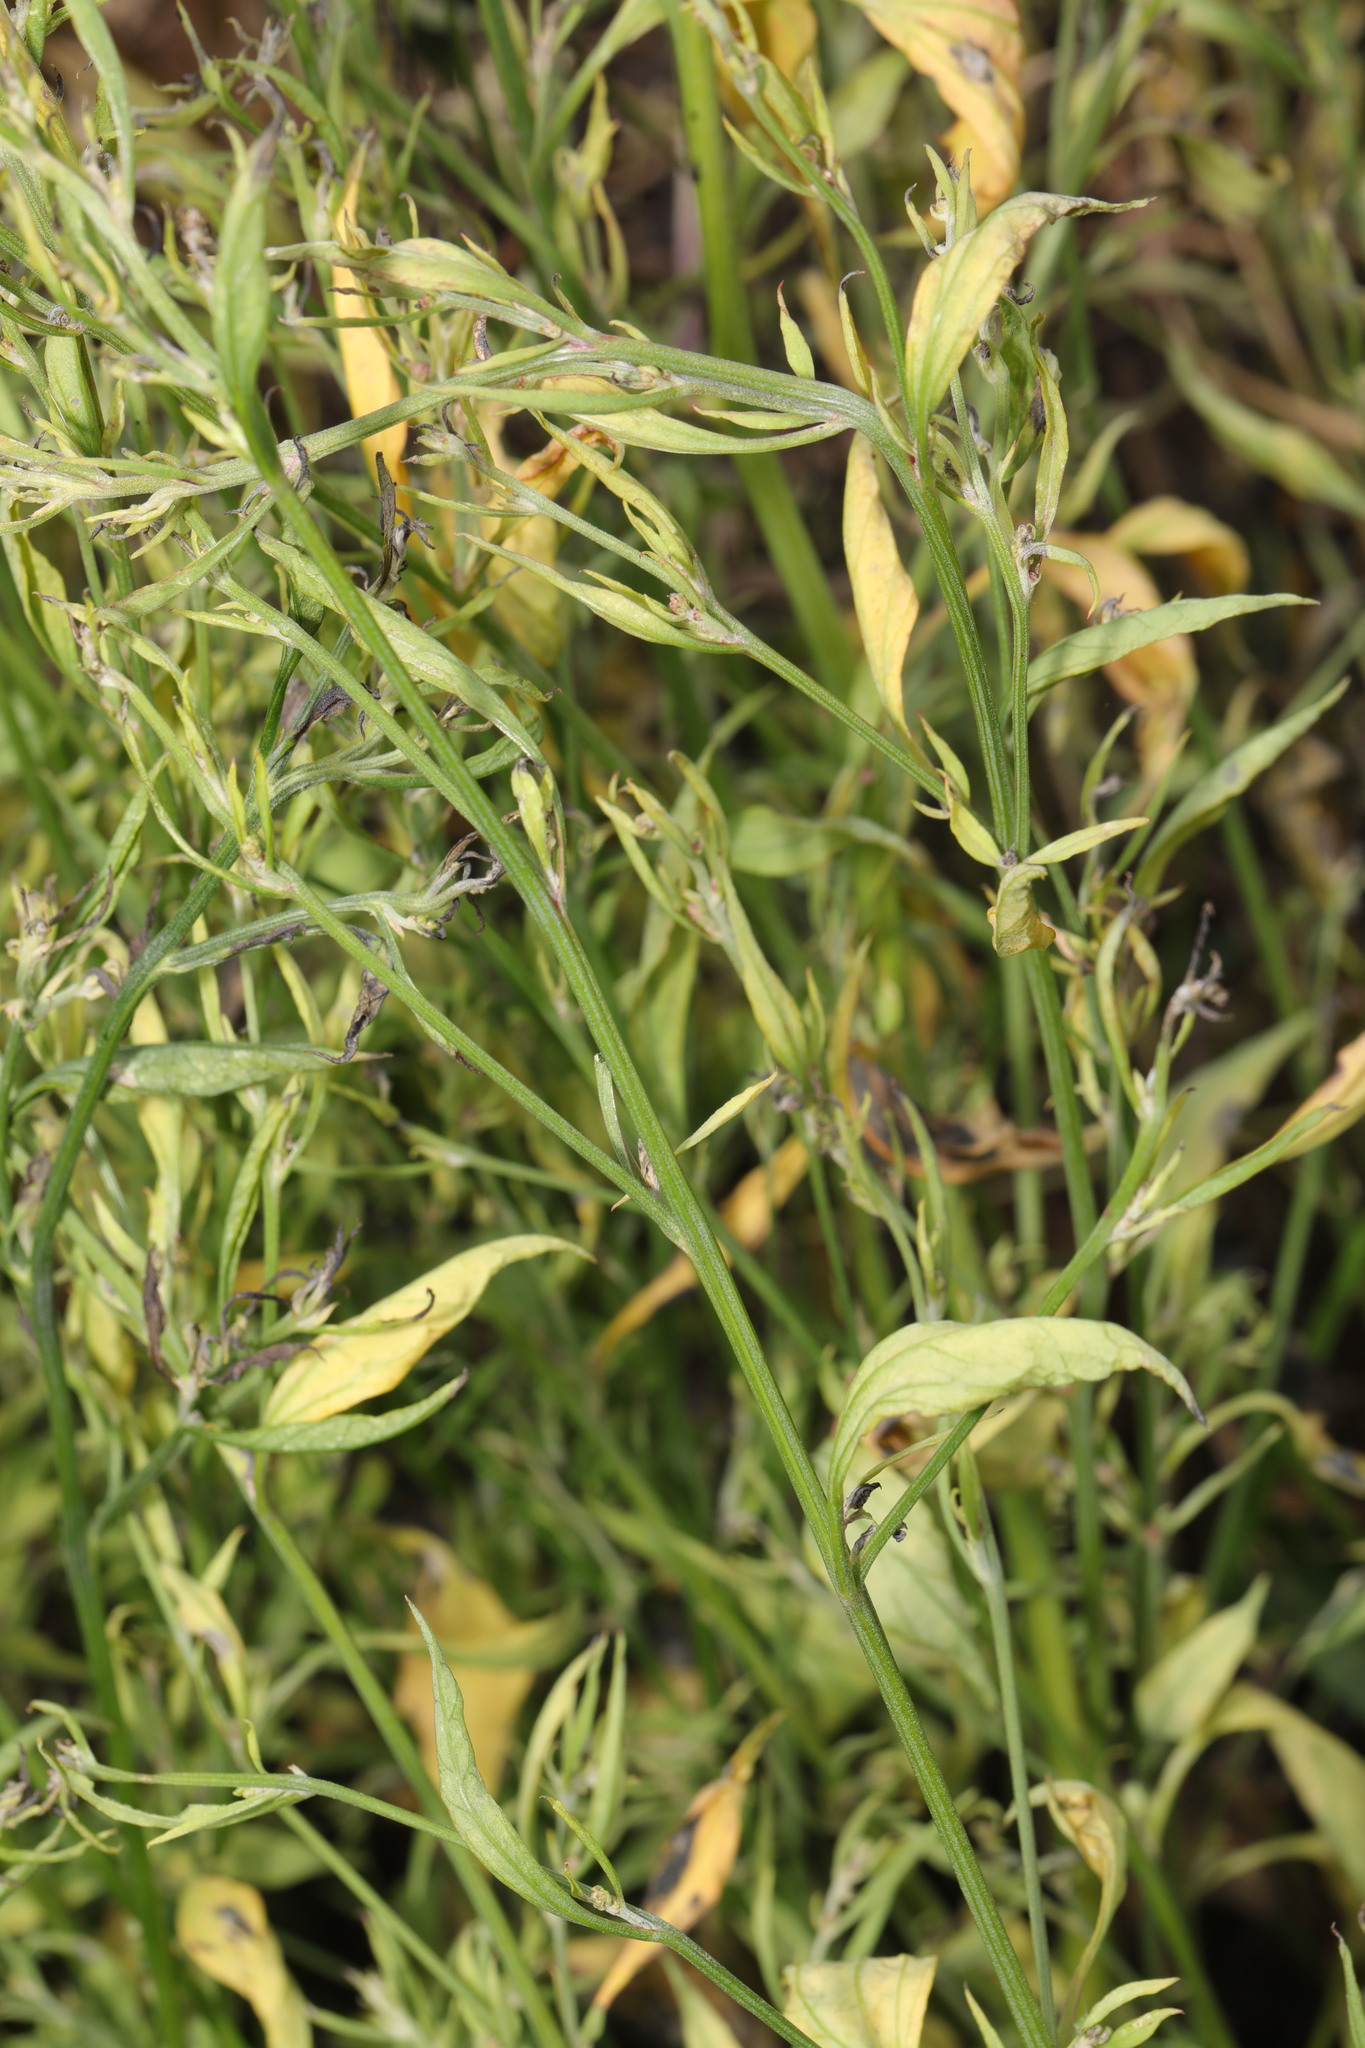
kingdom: Plantae
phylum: Tracheophyta
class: Magnoliopsida
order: Fabales
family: Fabaceae
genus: Lathyrus
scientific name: Lathyrus pratensis
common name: Meadow vetchling
